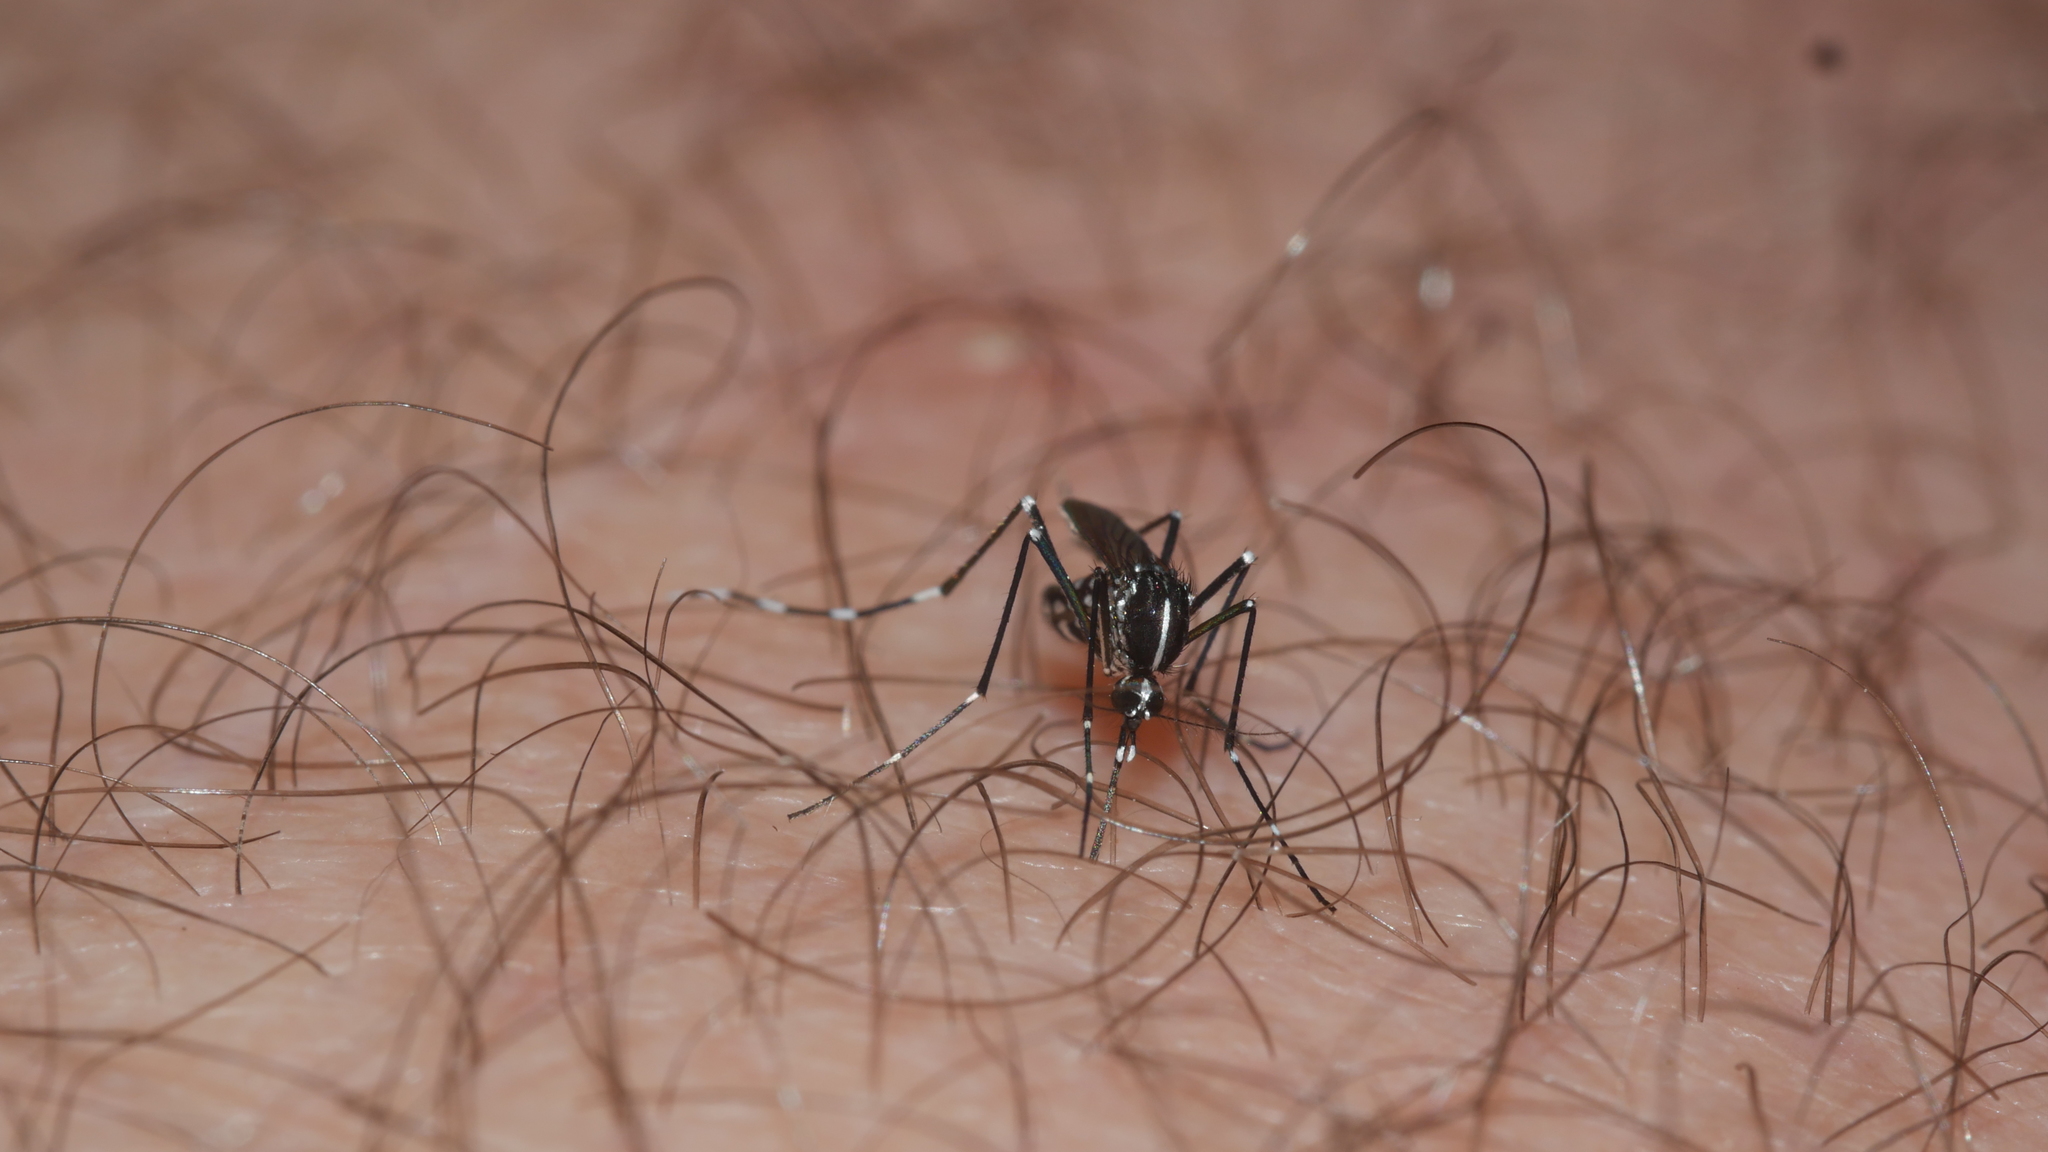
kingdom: Animalia
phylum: Arthropoda
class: Insecta
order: Diptera
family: Culicidae
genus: Aedes
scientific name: Aedes albopictus
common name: Tiger mosquito
